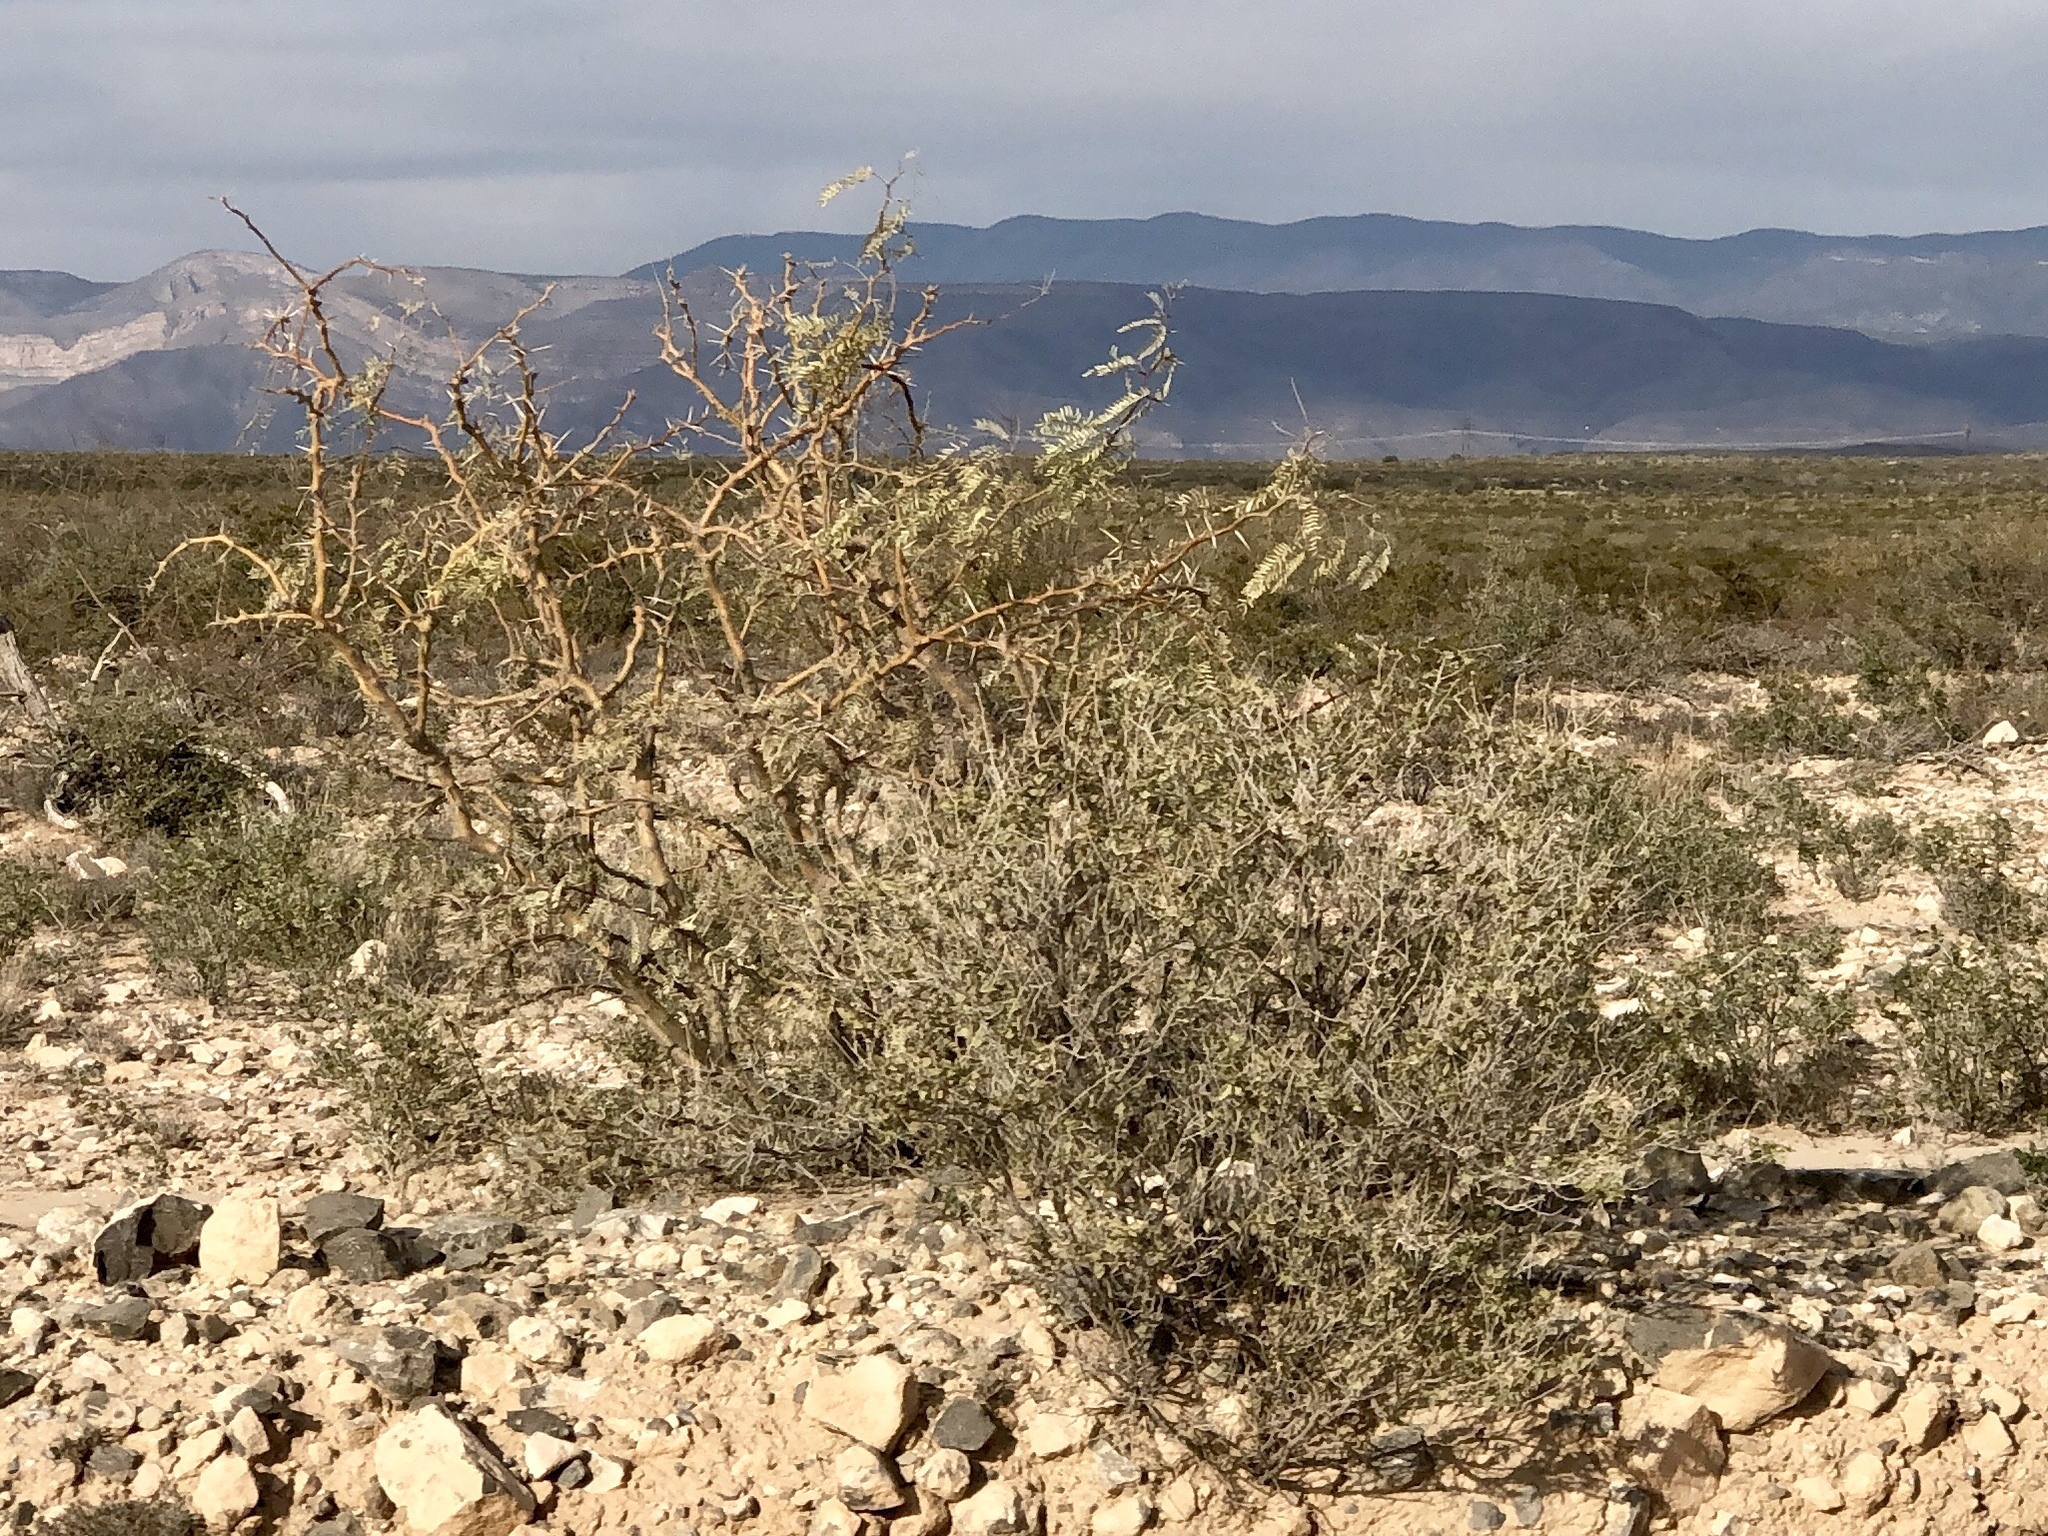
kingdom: Plantae
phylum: Tracheophyta
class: Magnoliopsida
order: Fabales
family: Fabaceae
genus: Prosopis
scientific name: Prosopis glandulosa
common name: Honey mesquite
